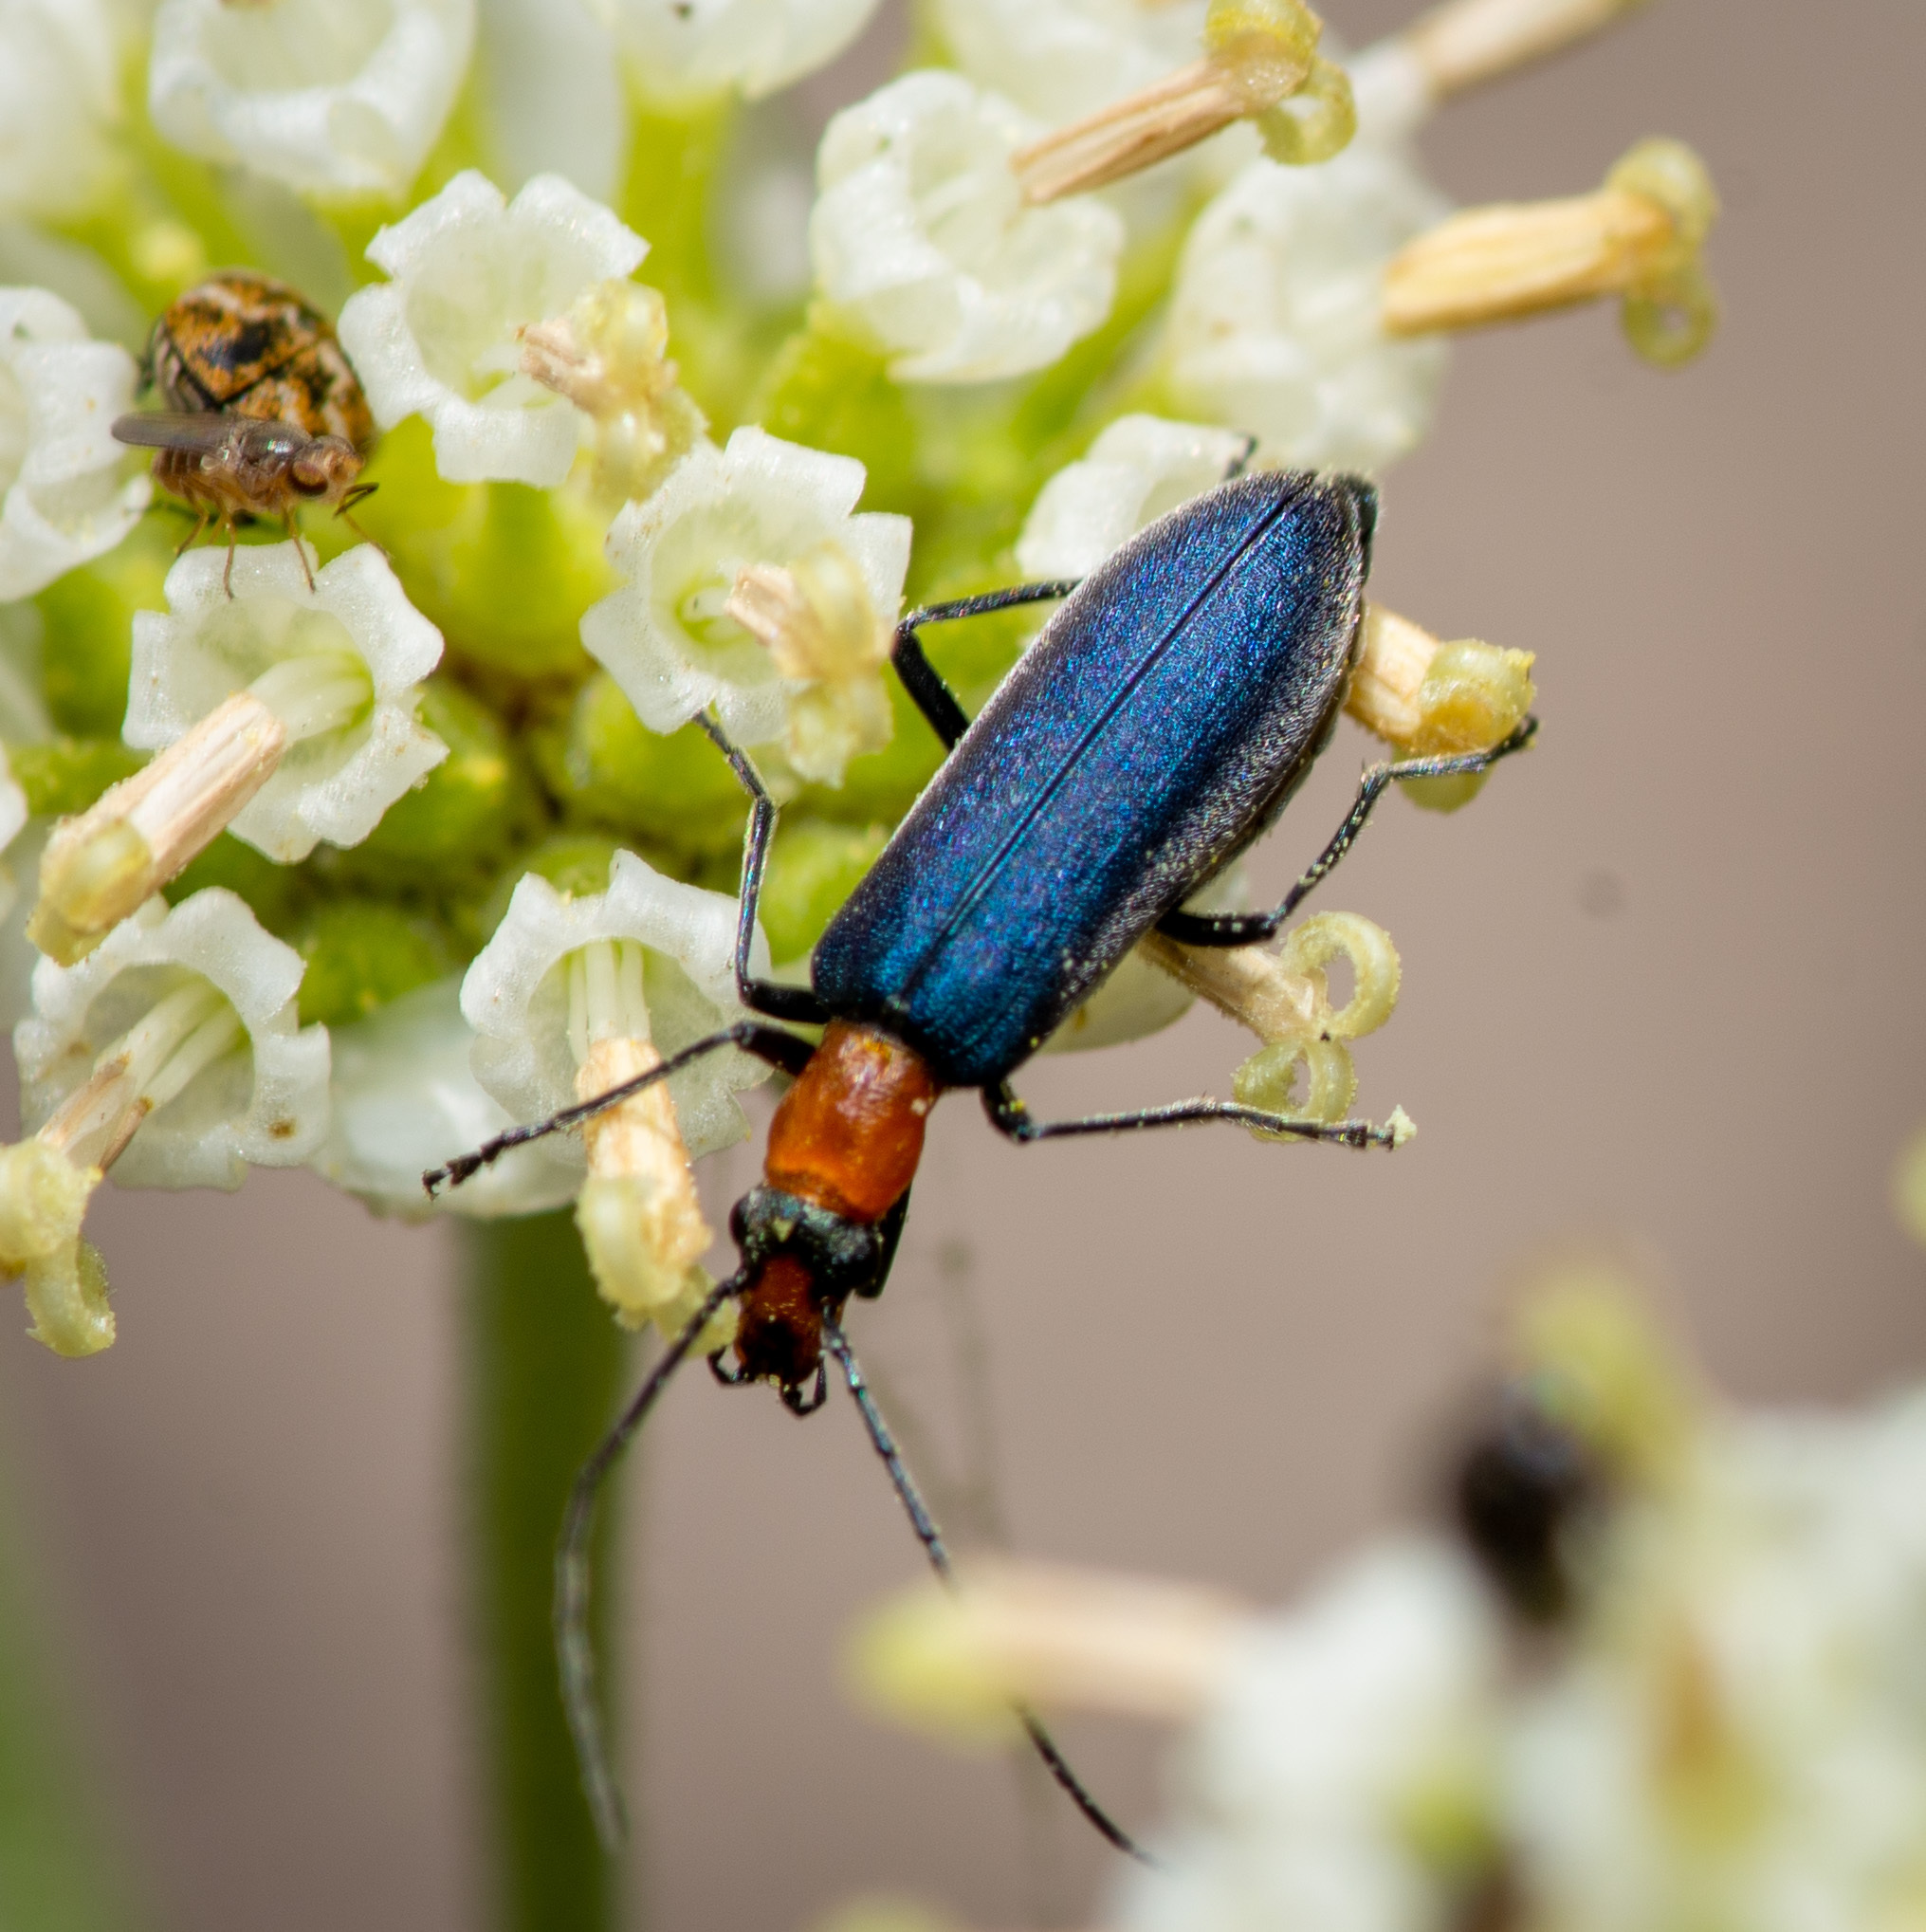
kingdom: Animalia
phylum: Arthropoda
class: Insecta
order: Coleoptera
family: Oedemeridae
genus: Heliocis
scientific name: Heliocis repanda
